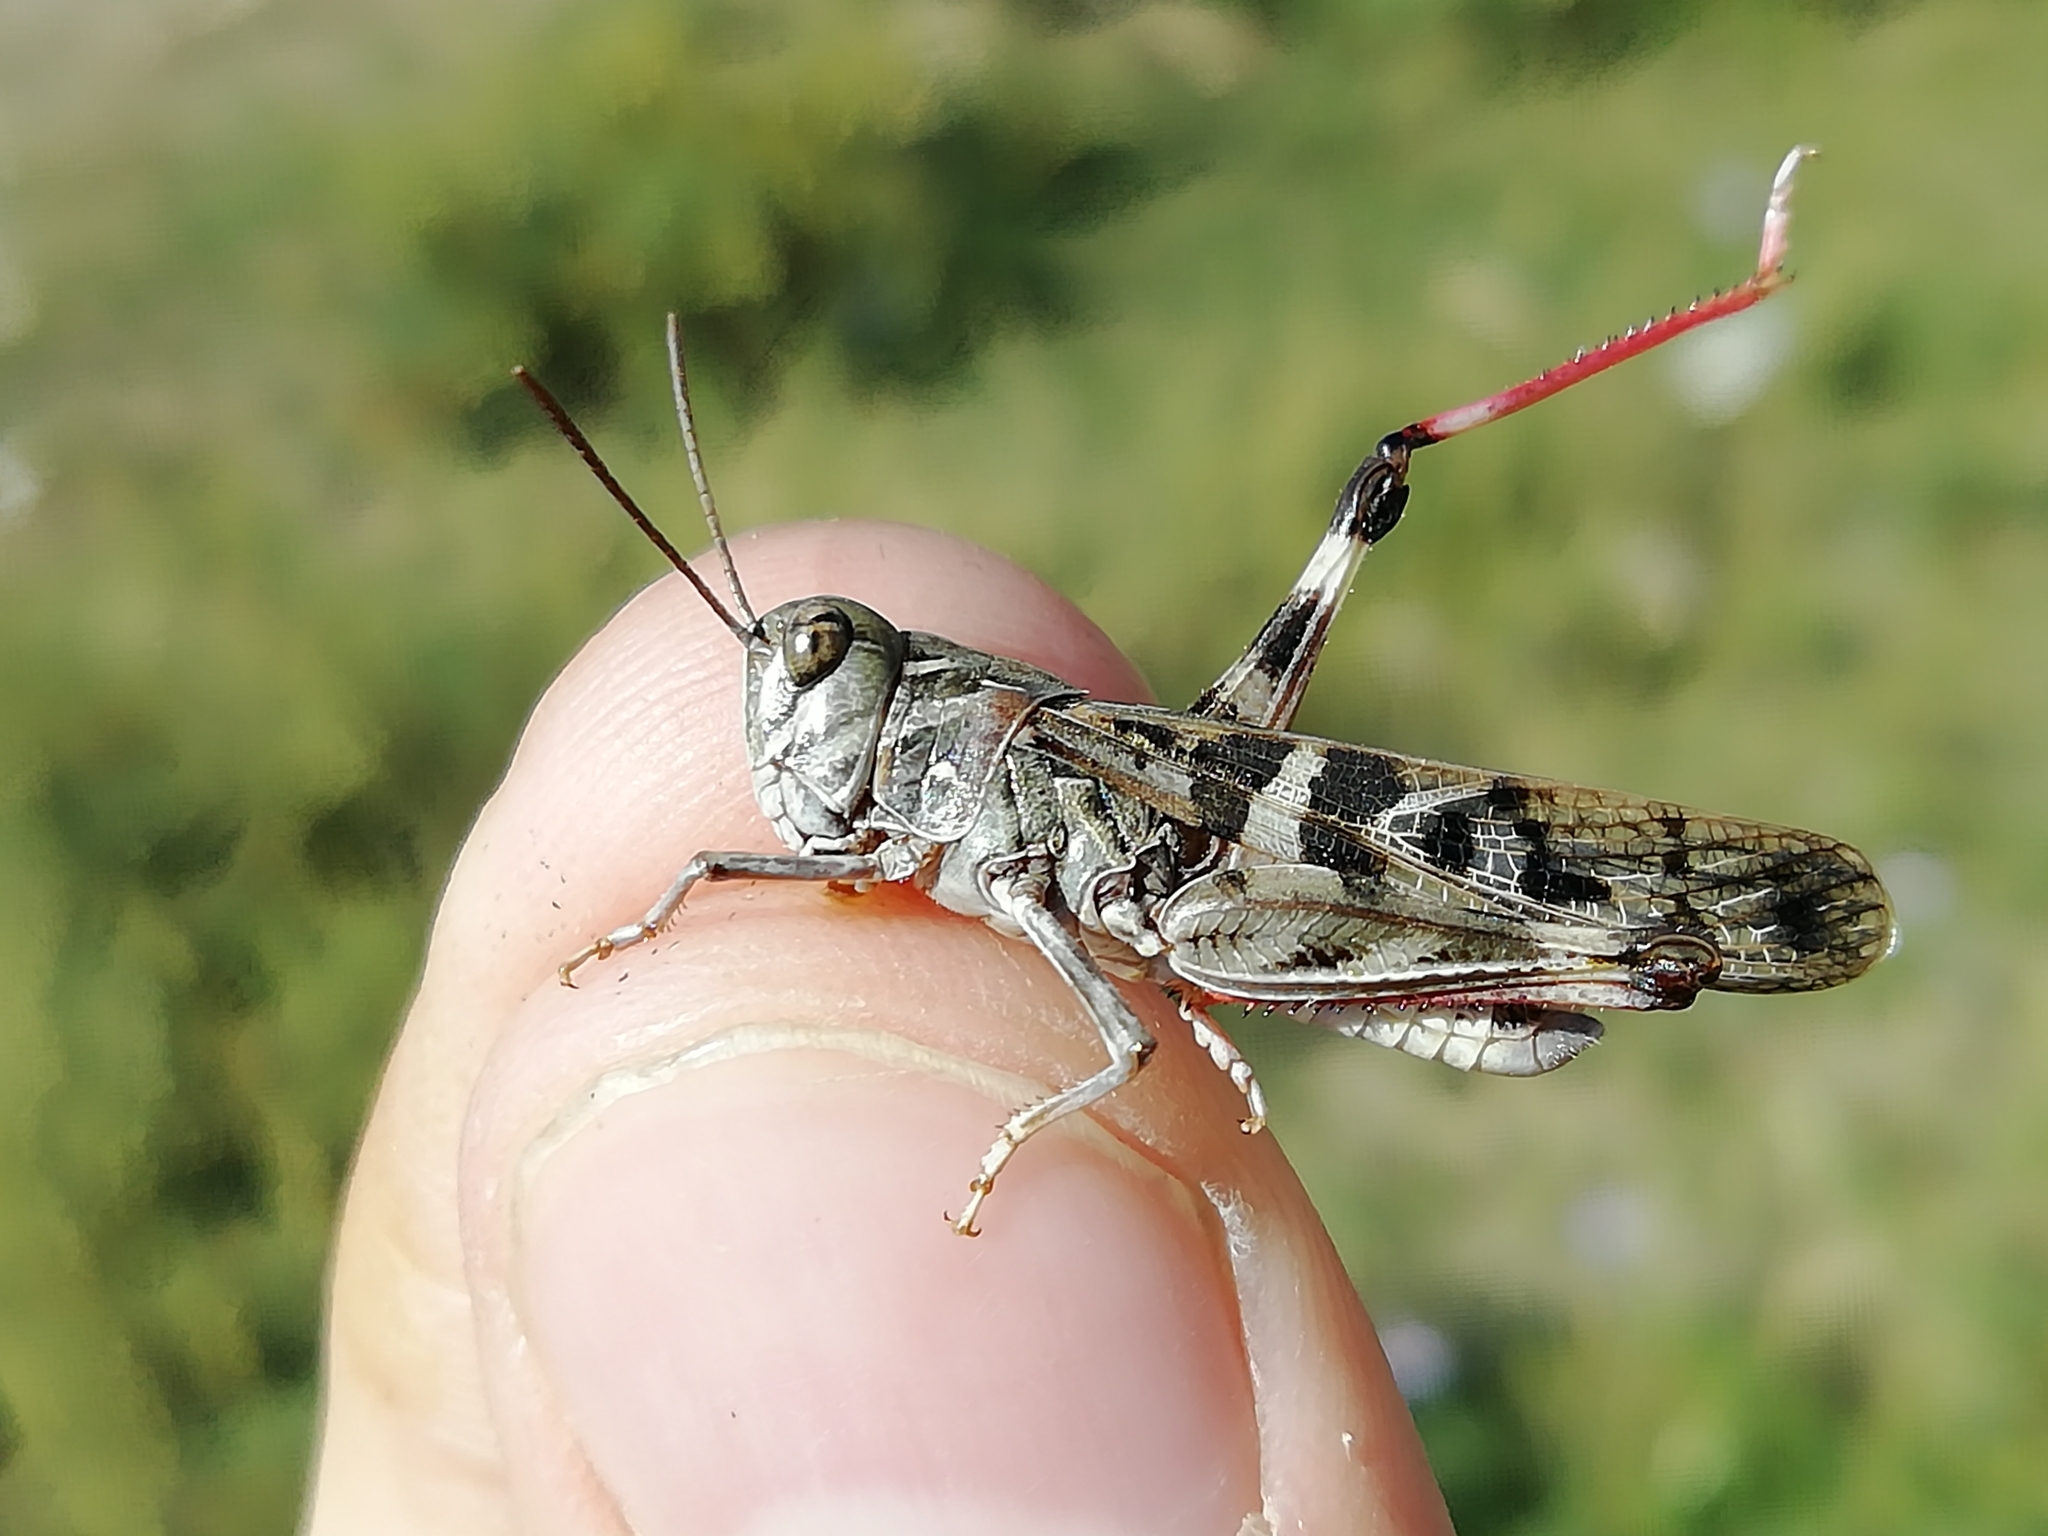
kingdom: Animalia
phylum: Arthropoda
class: Insecta
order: Orthoptera
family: Acrididae
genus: Oedaleus
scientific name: Oedaleus decorus
